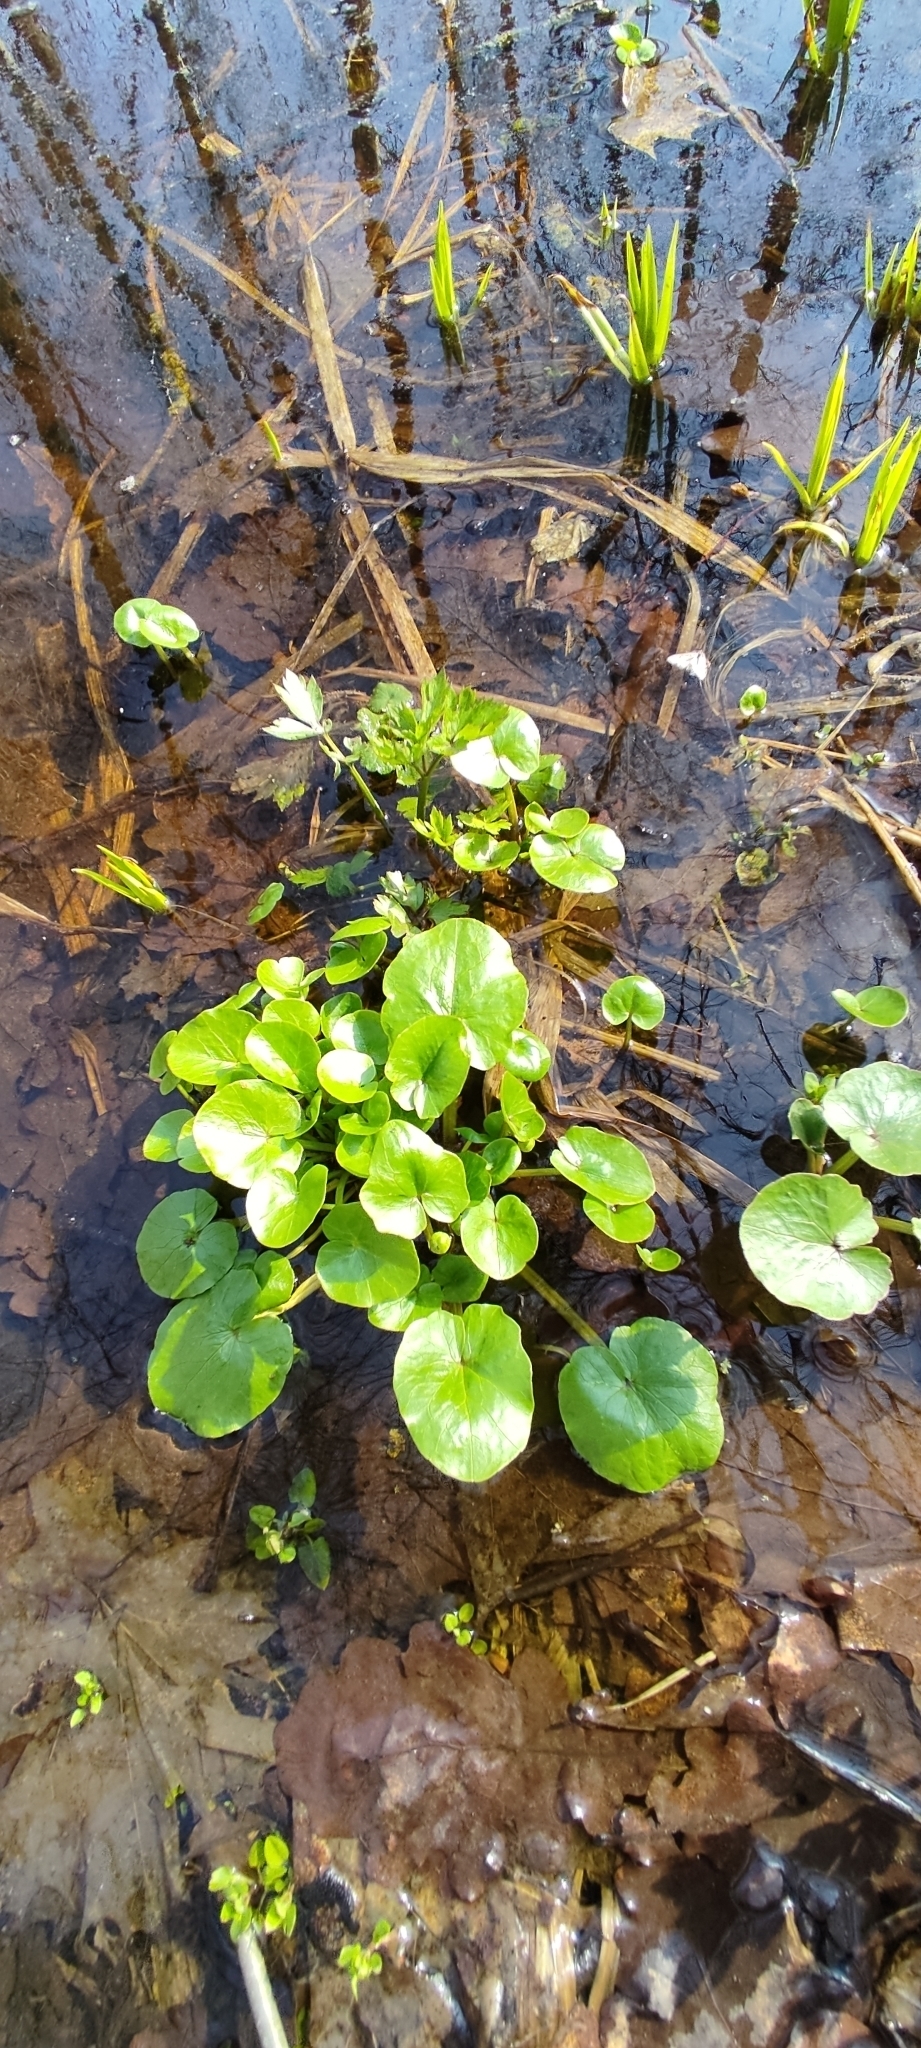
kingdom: Plantae
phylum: Tracheophyta
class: Magnoliopsida
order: Ranunculales
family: Ranunculaceae
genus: Ficaria
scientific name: Ficaria verna
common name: Lesser celandine
